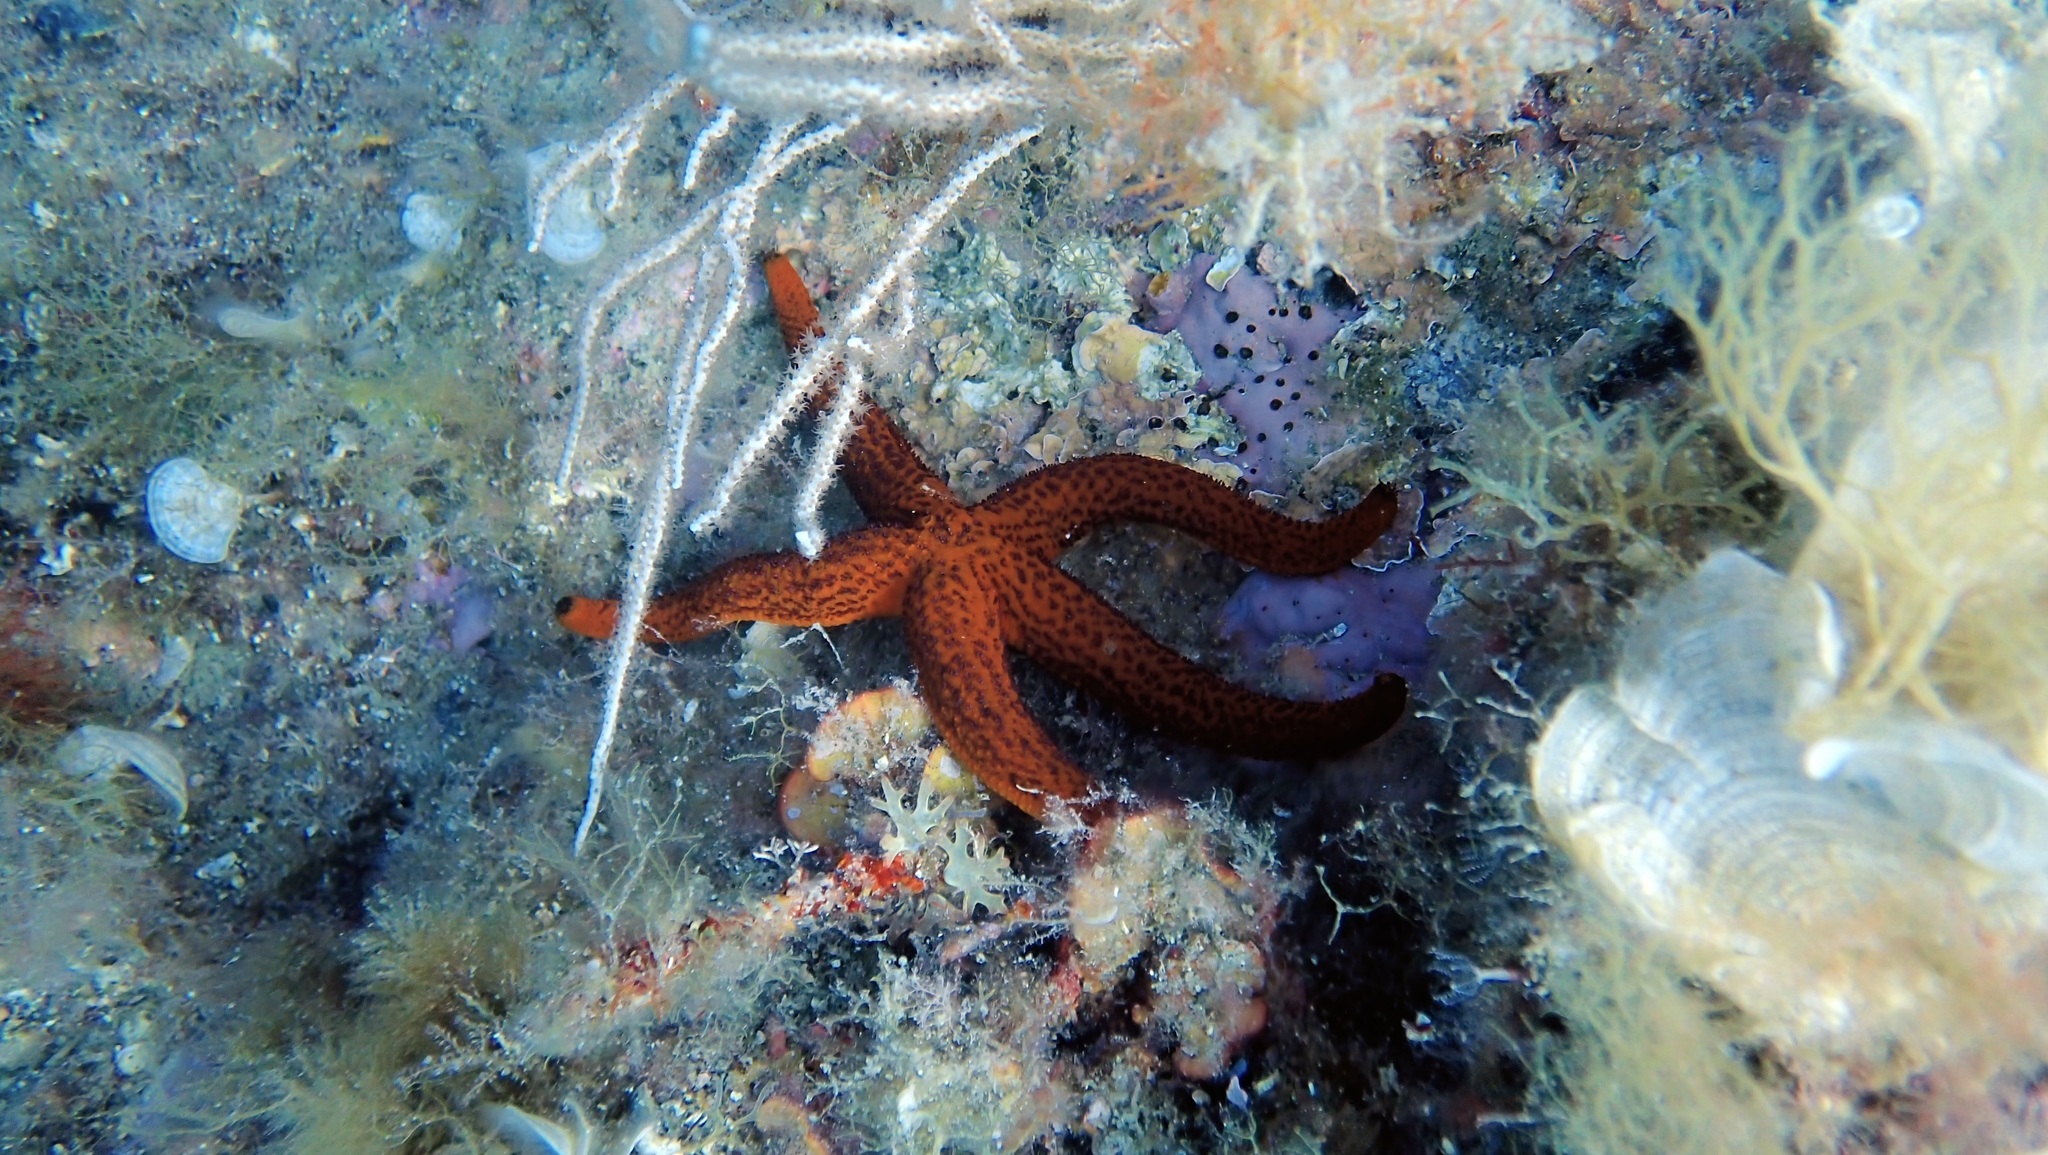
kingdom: Animalia
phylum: Echinodermata
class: Asteroidea
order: Spinulosida
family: Echinasteridae
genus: Echinaster
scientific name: Echinaster sepositus
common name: Red starfish
